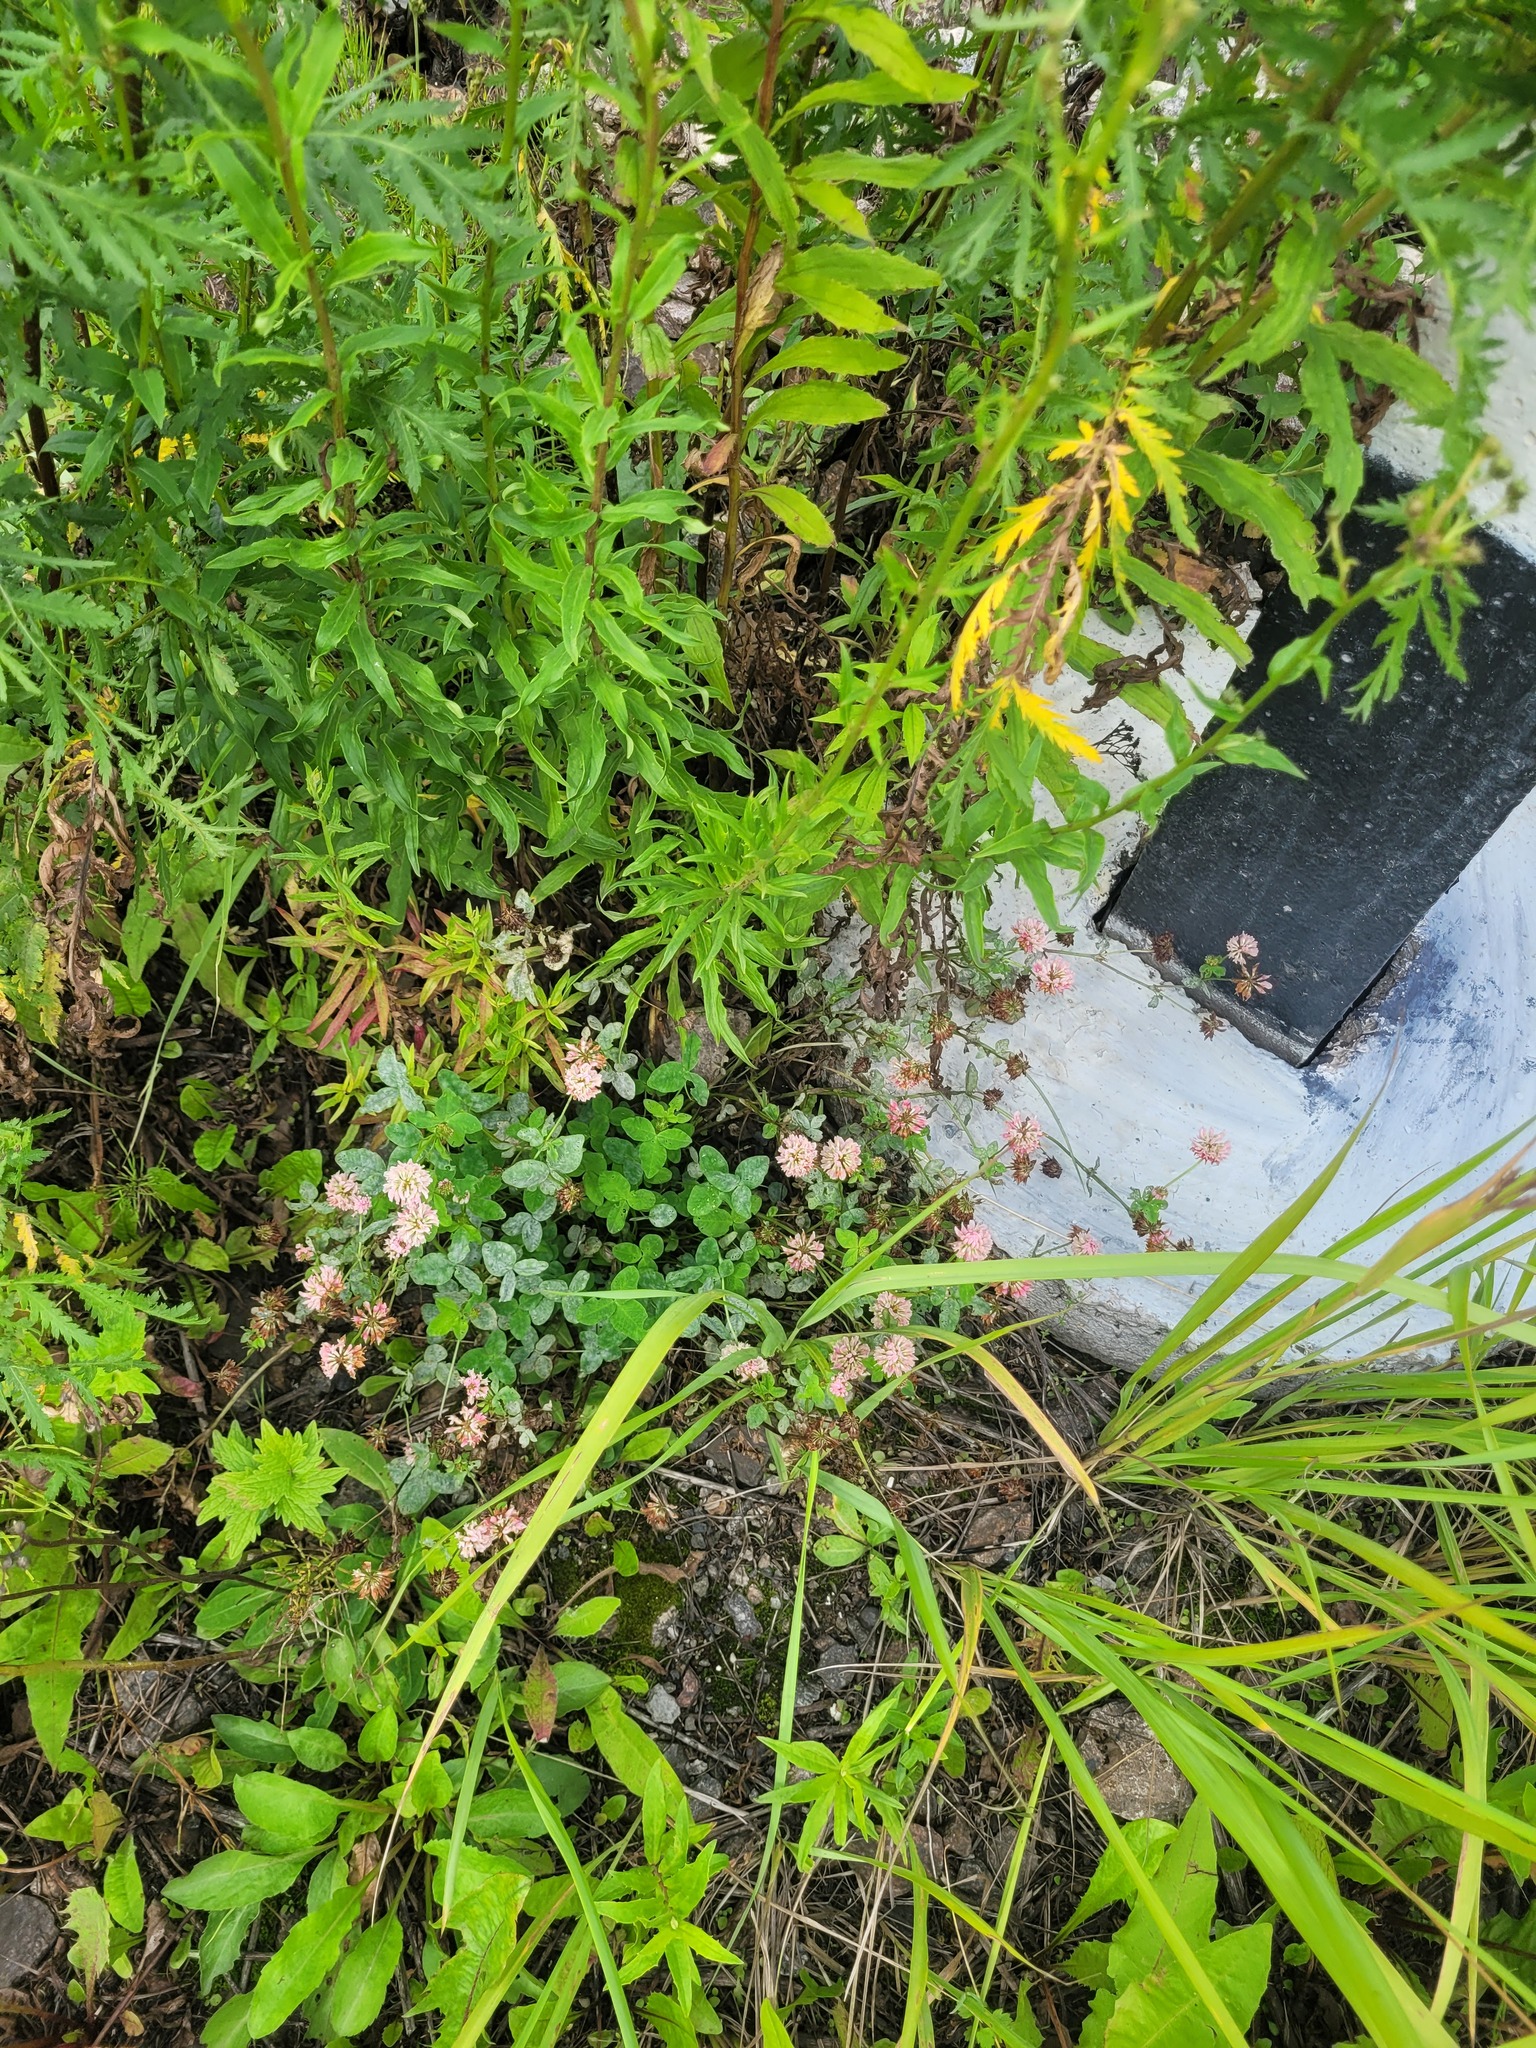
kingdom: Plantae
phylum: Tracheophyta
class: Magnoliopsida
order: Fabales
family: Fabaceae
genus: Trifolium
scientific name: Trifolium hybridum
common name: Alsike clover
